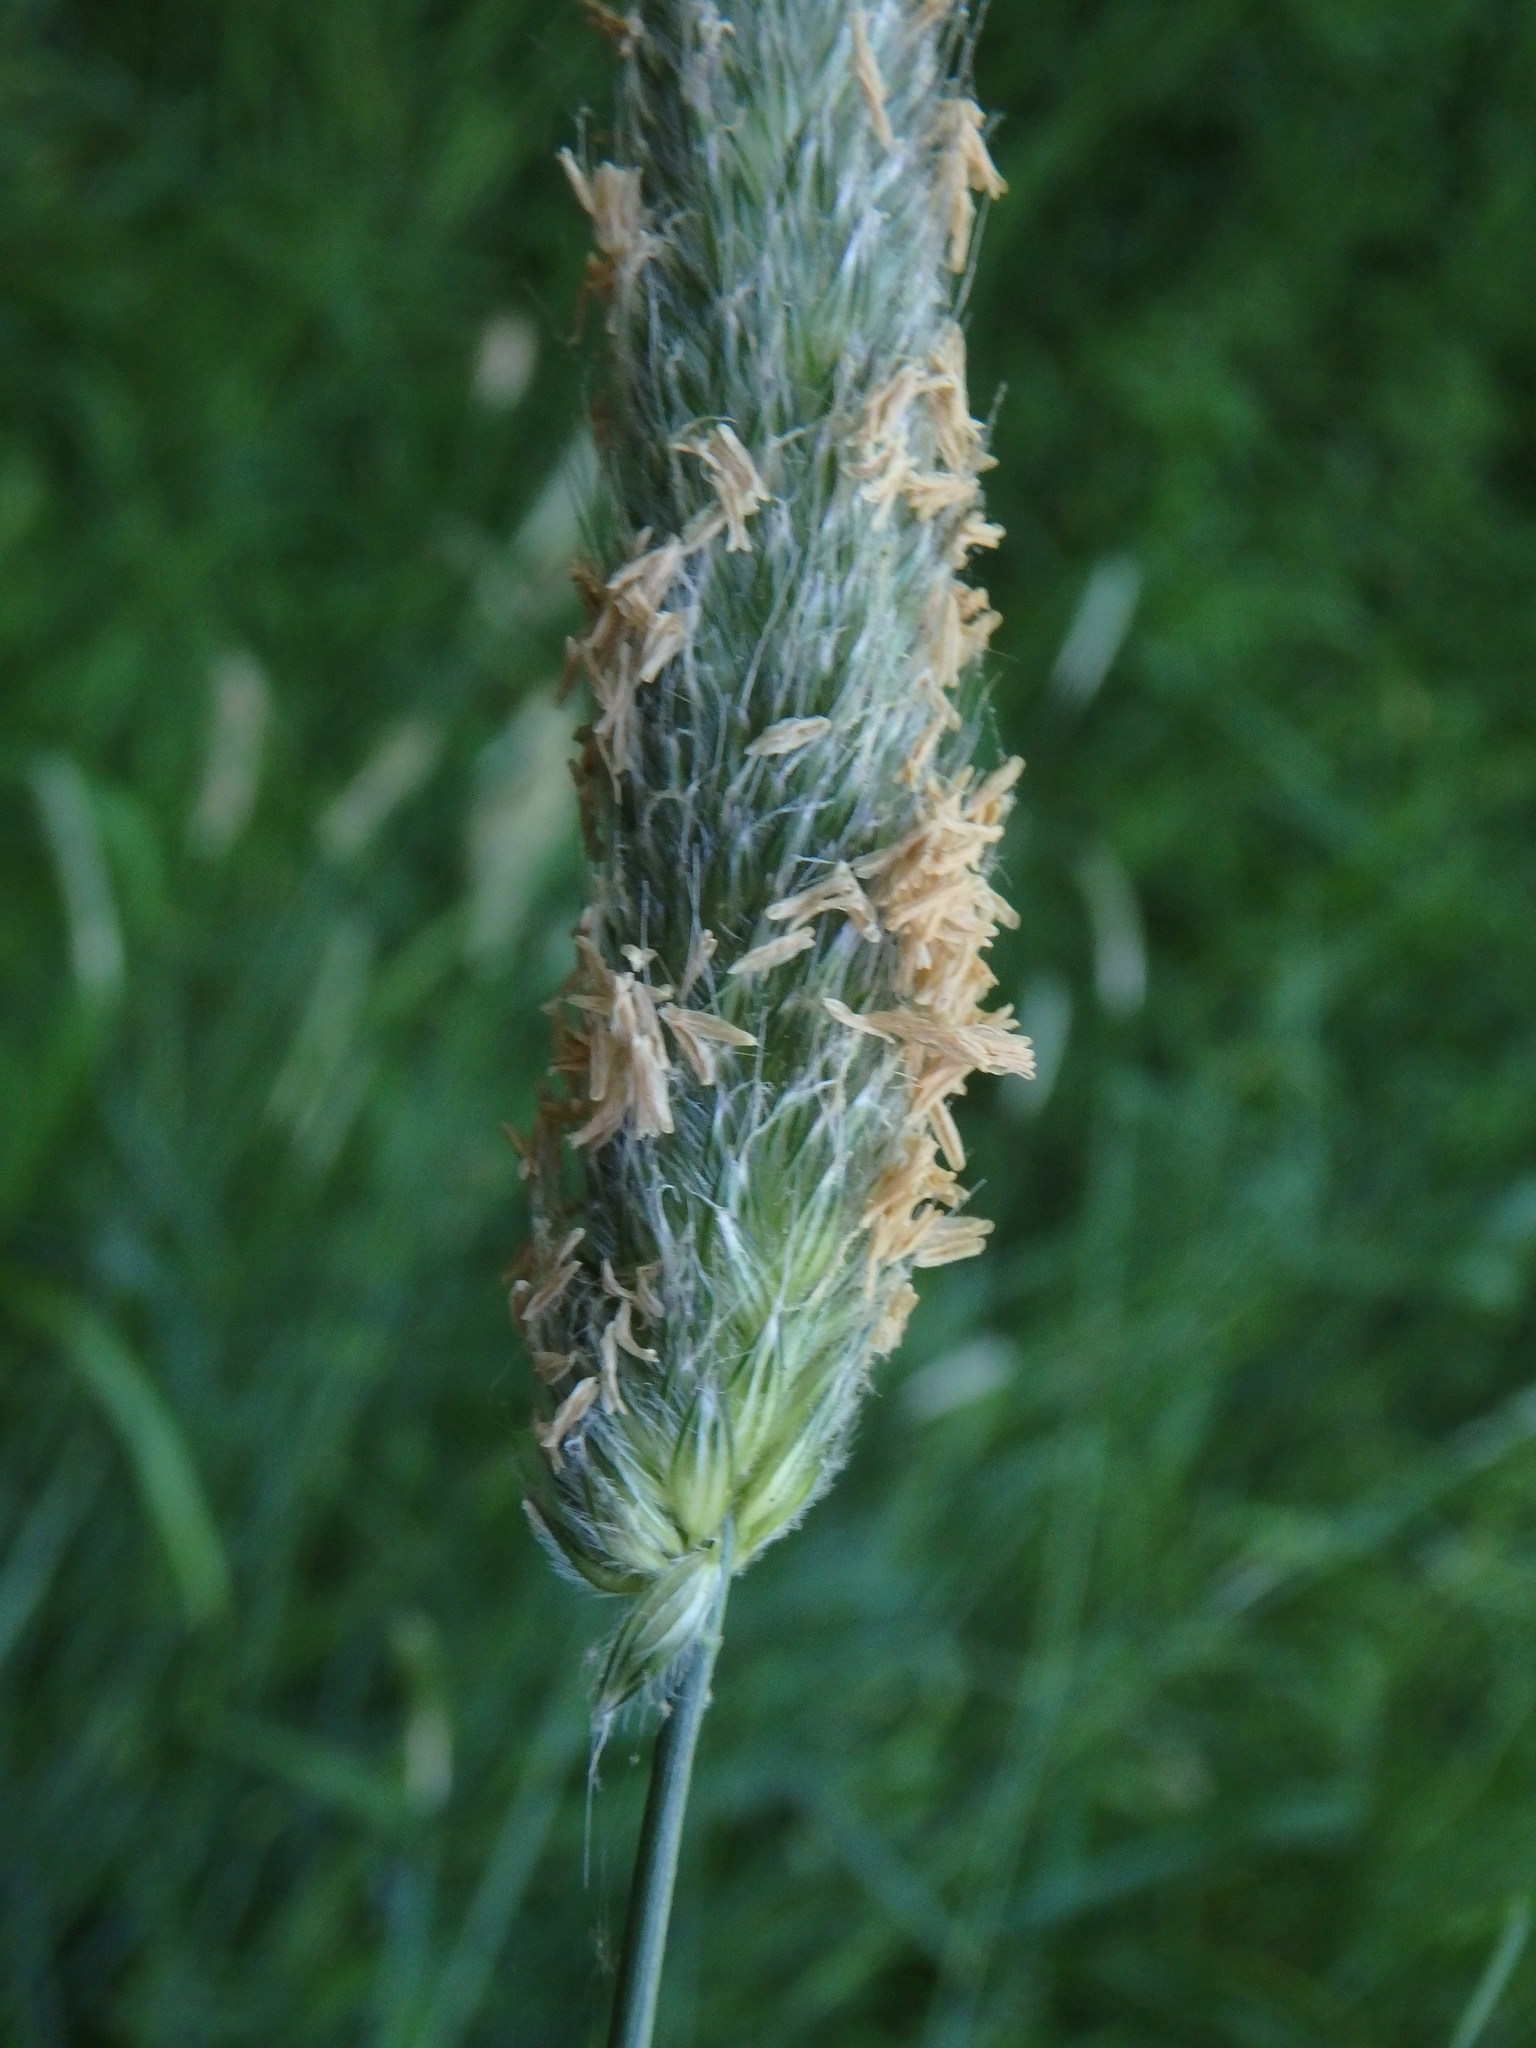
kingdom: Plantae
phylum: Tracheophyta
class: Liliopsida
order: Poales
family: Poaceae
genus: Alopecurus
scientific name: Alopecurus pratensis
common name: Meadow foxtail
